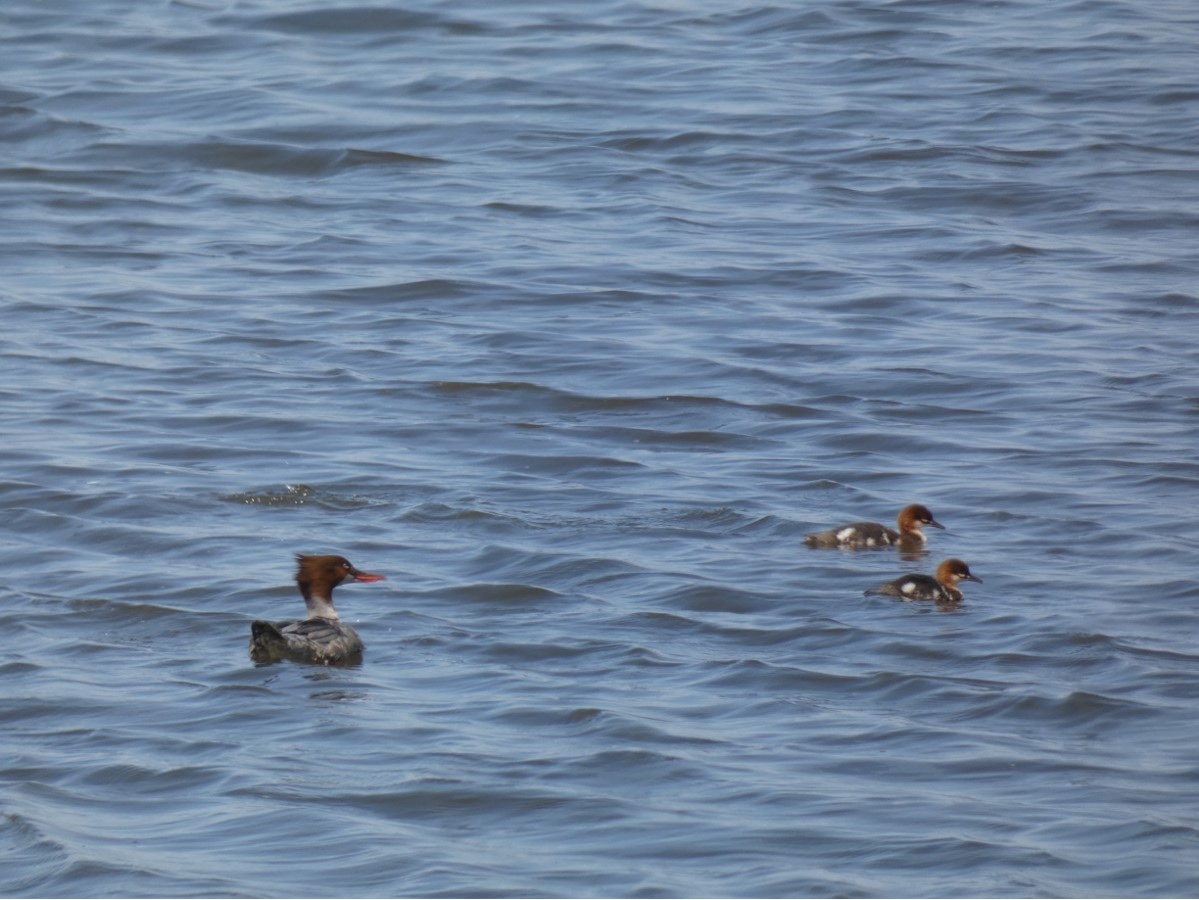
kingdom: Animalia
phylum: Chordata
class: Aves
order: Anseriformes
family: Anatidae
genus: Mergus
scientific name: Mergus merganser
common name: Common merganser
